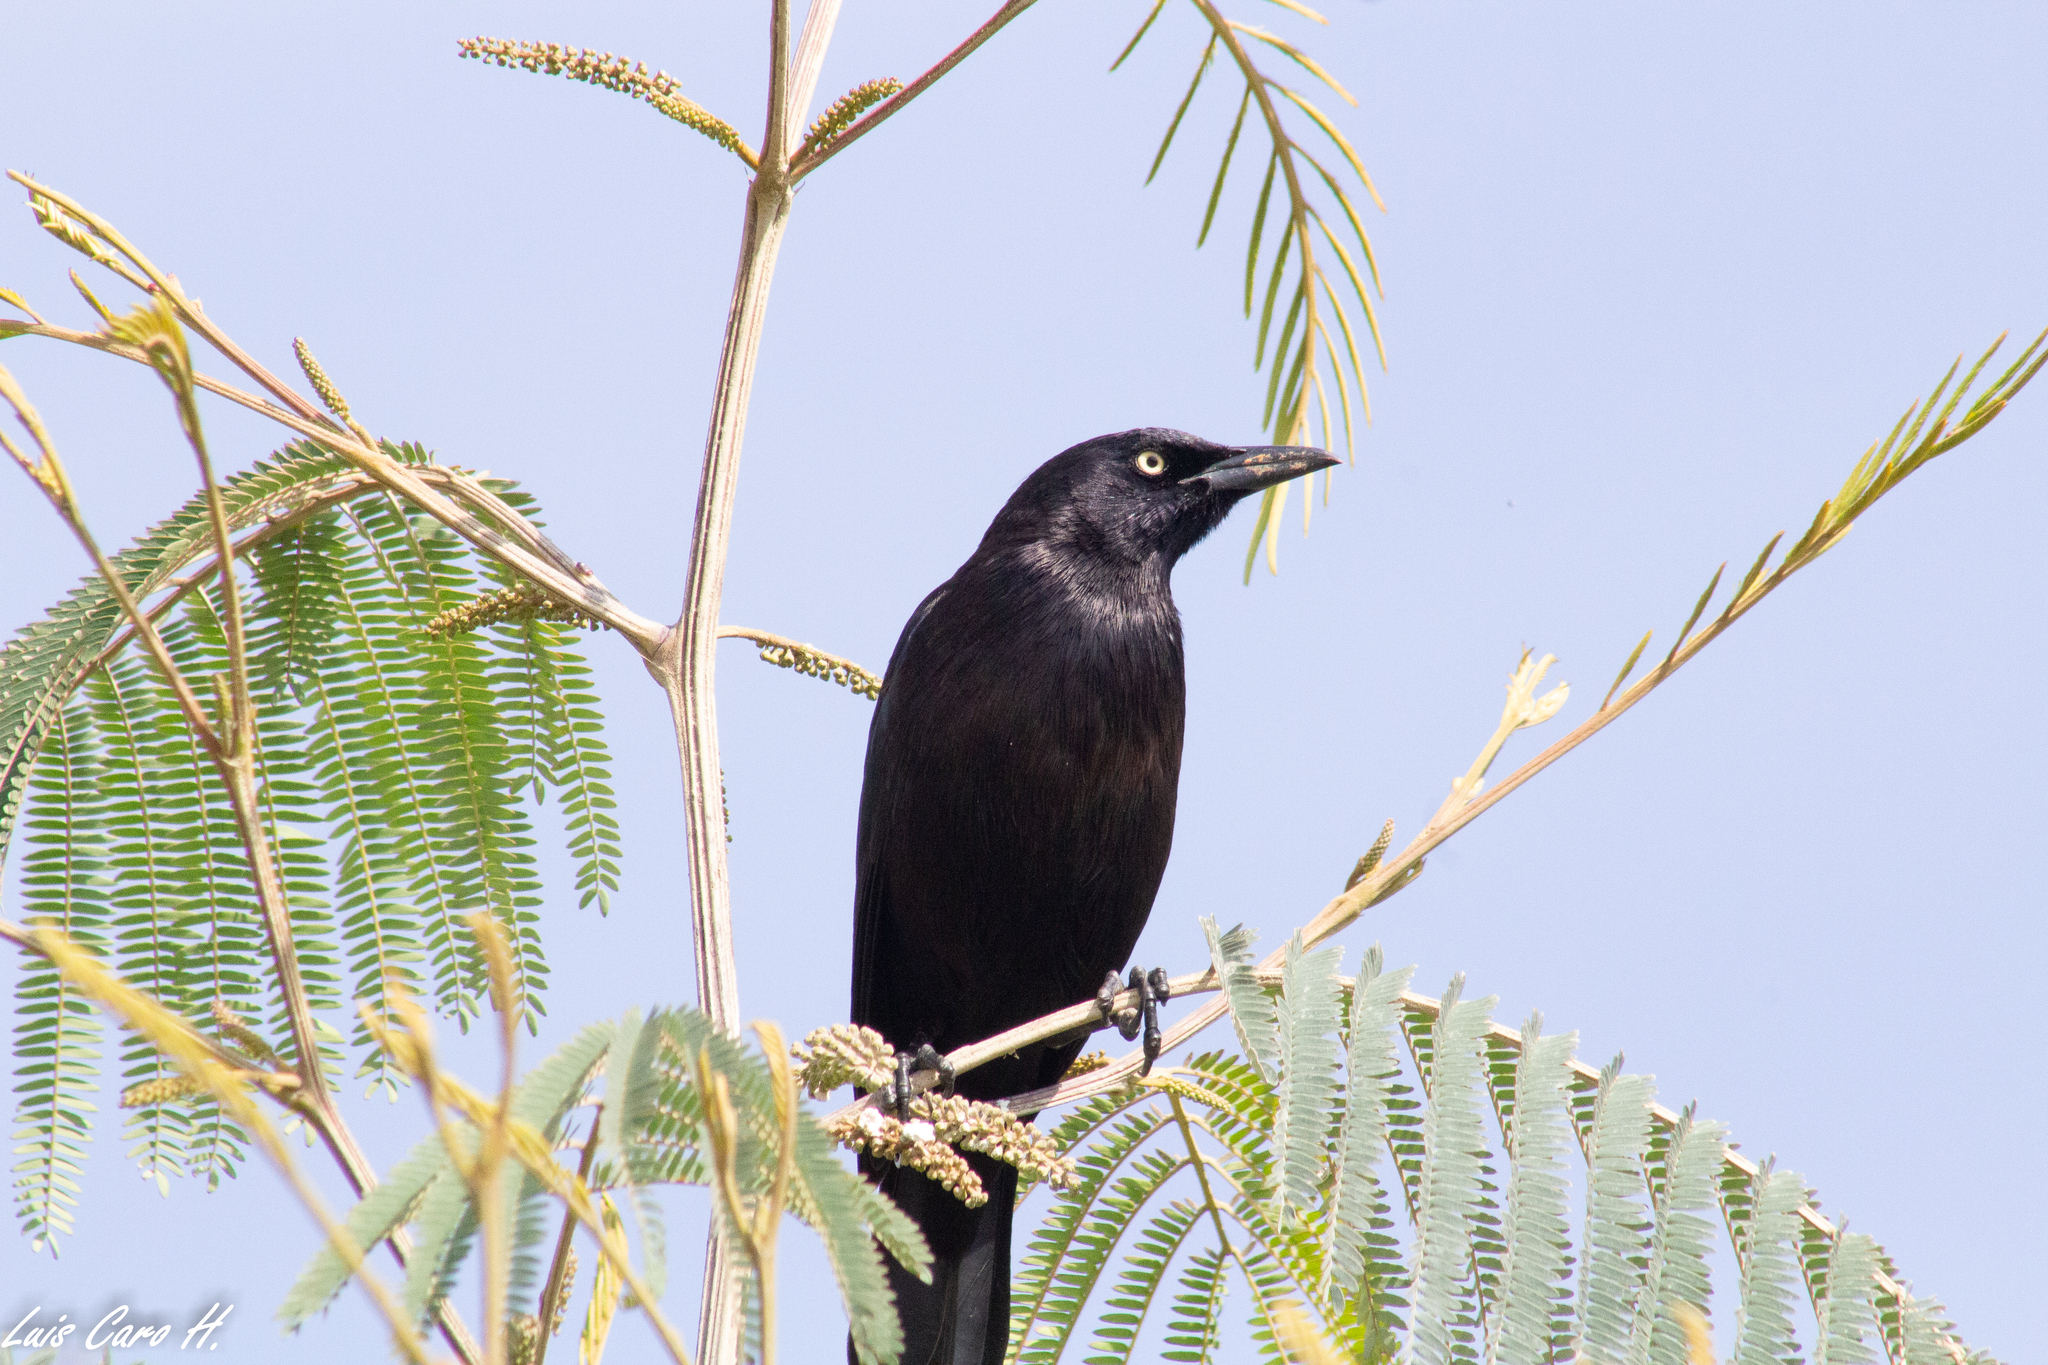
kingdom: Animalia
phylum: Chordata
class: Aves
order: Passeriformes
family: Icteridae
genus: Quiscalus
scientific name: Quiscalus lugubris
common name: Carib grackle
